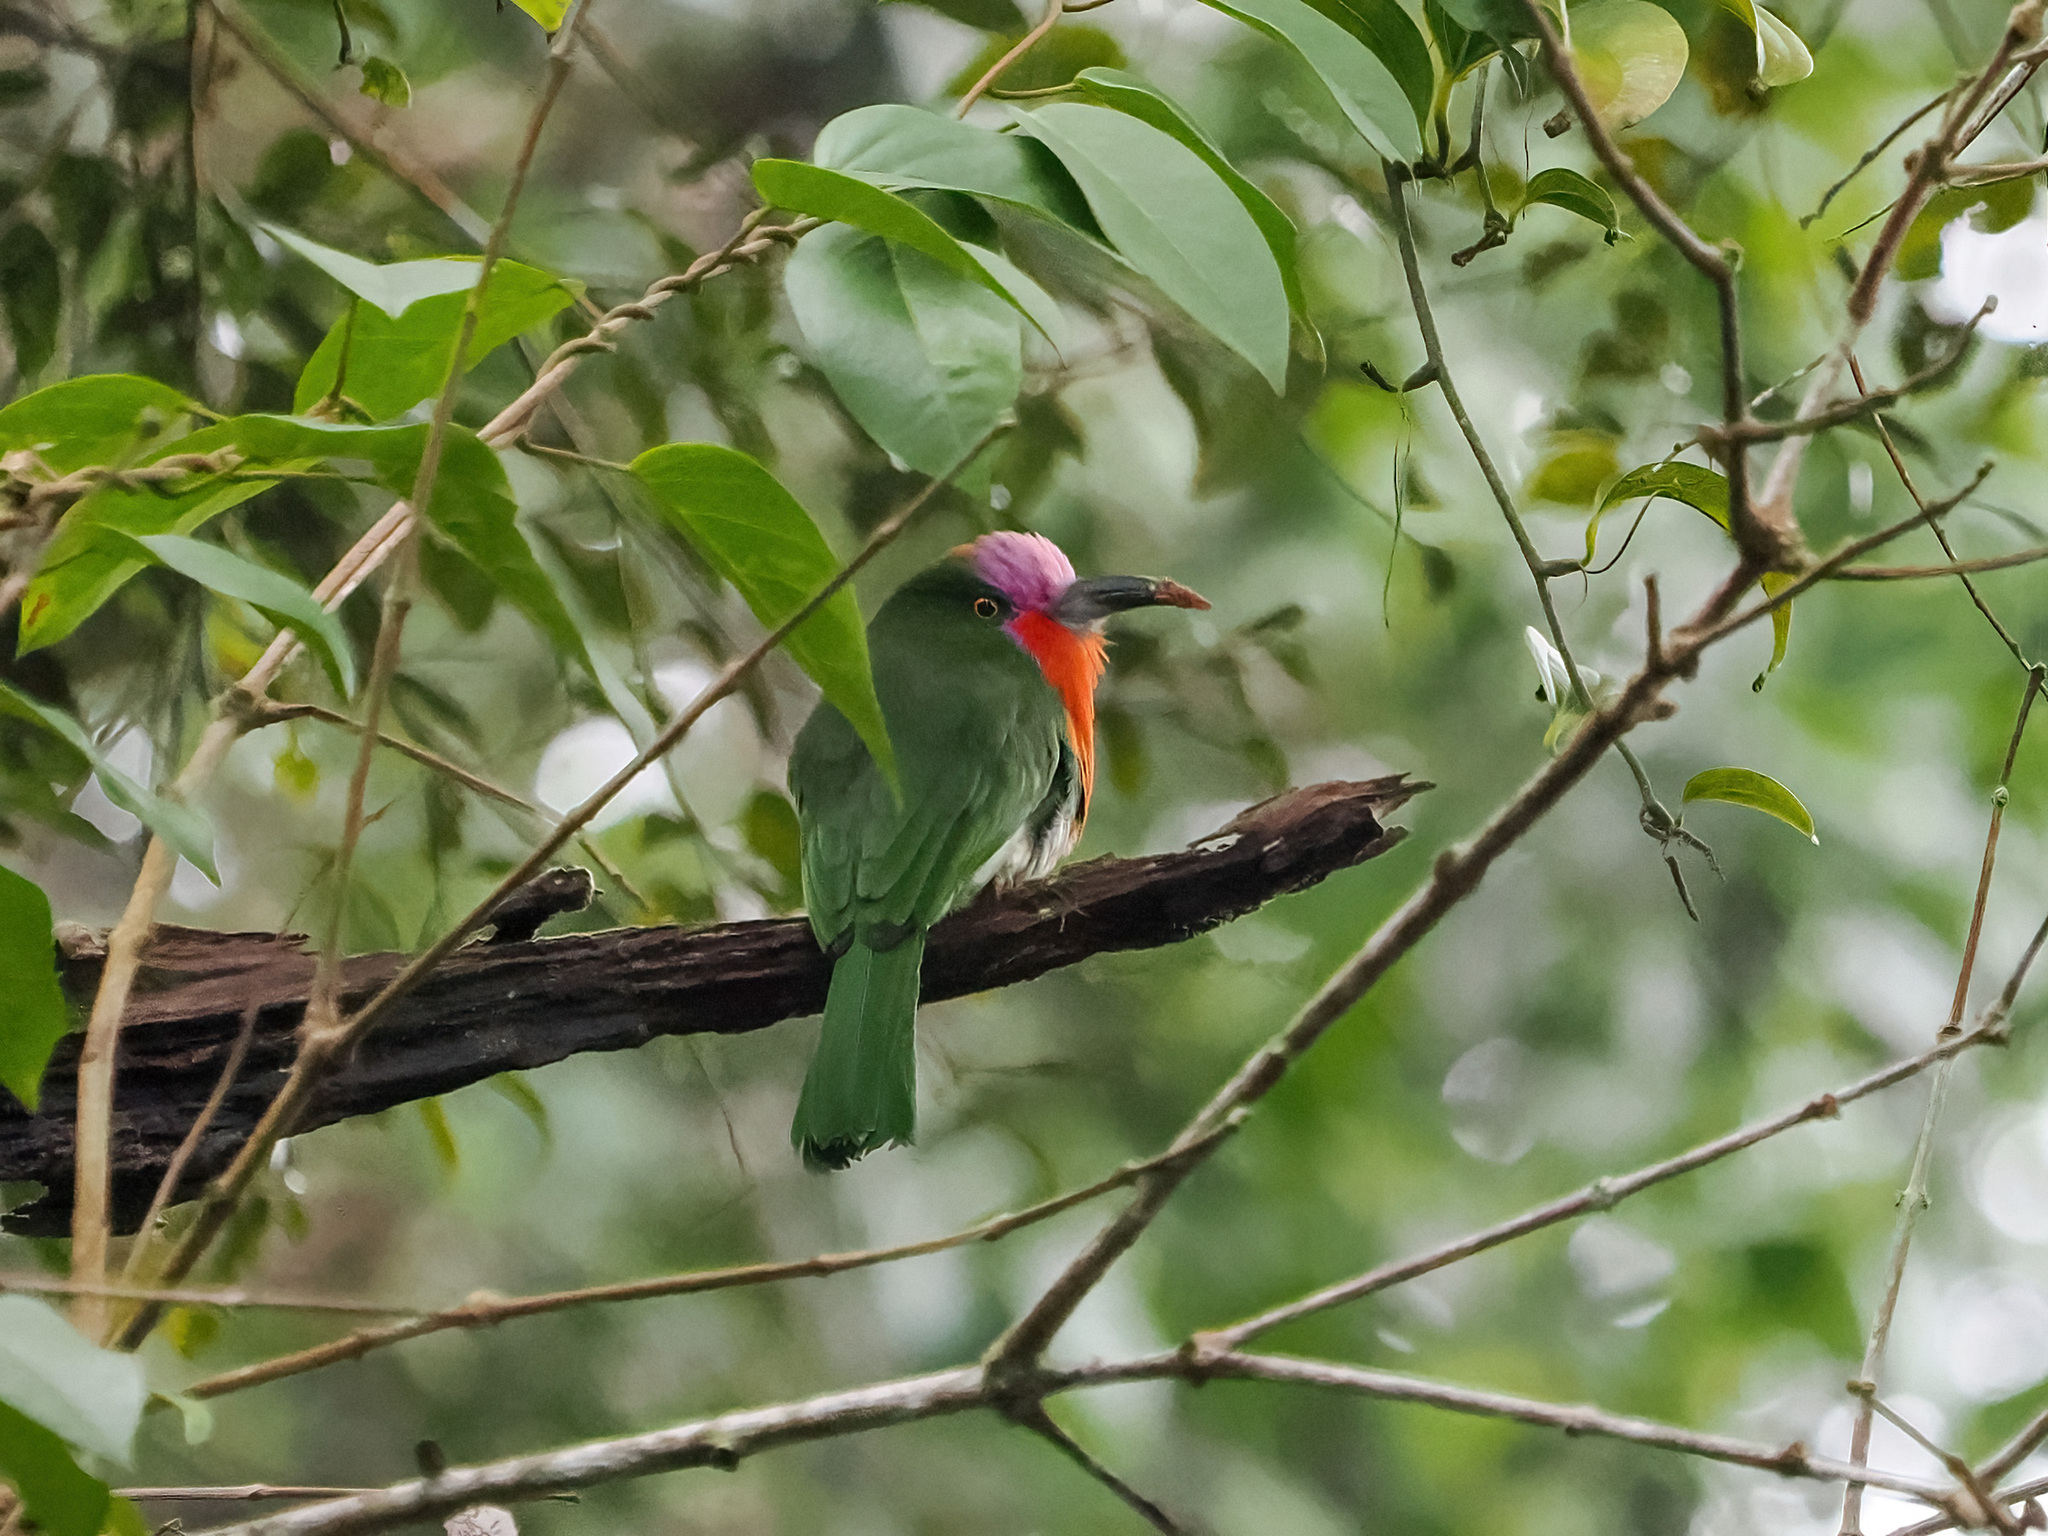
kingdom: Animalia
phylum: Chordata
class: Aves
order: Coraciiformes
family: Meropidae
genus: Nyctyornis
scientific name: Nyctyornis amictus
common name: Red-bearded bee-eater
